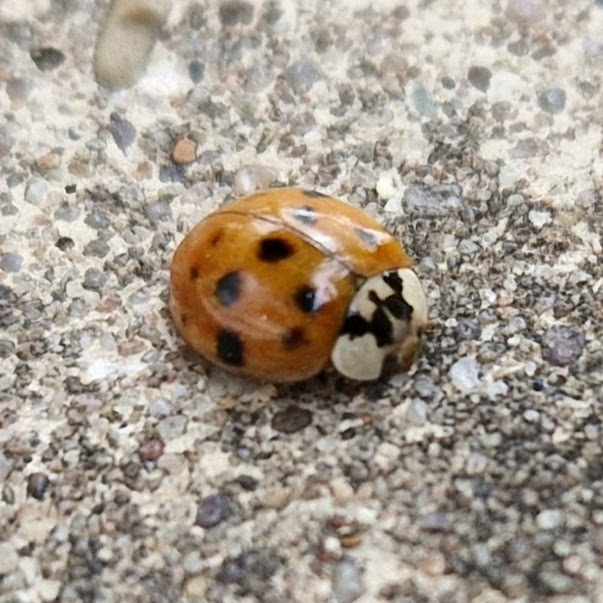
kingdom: Animalia
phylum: Arthropoda
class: Insecta
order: Coleoptera
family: Coccinellidae
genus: Harmonia
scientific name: Harmonia axyridis
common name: Harlequin ladybird
